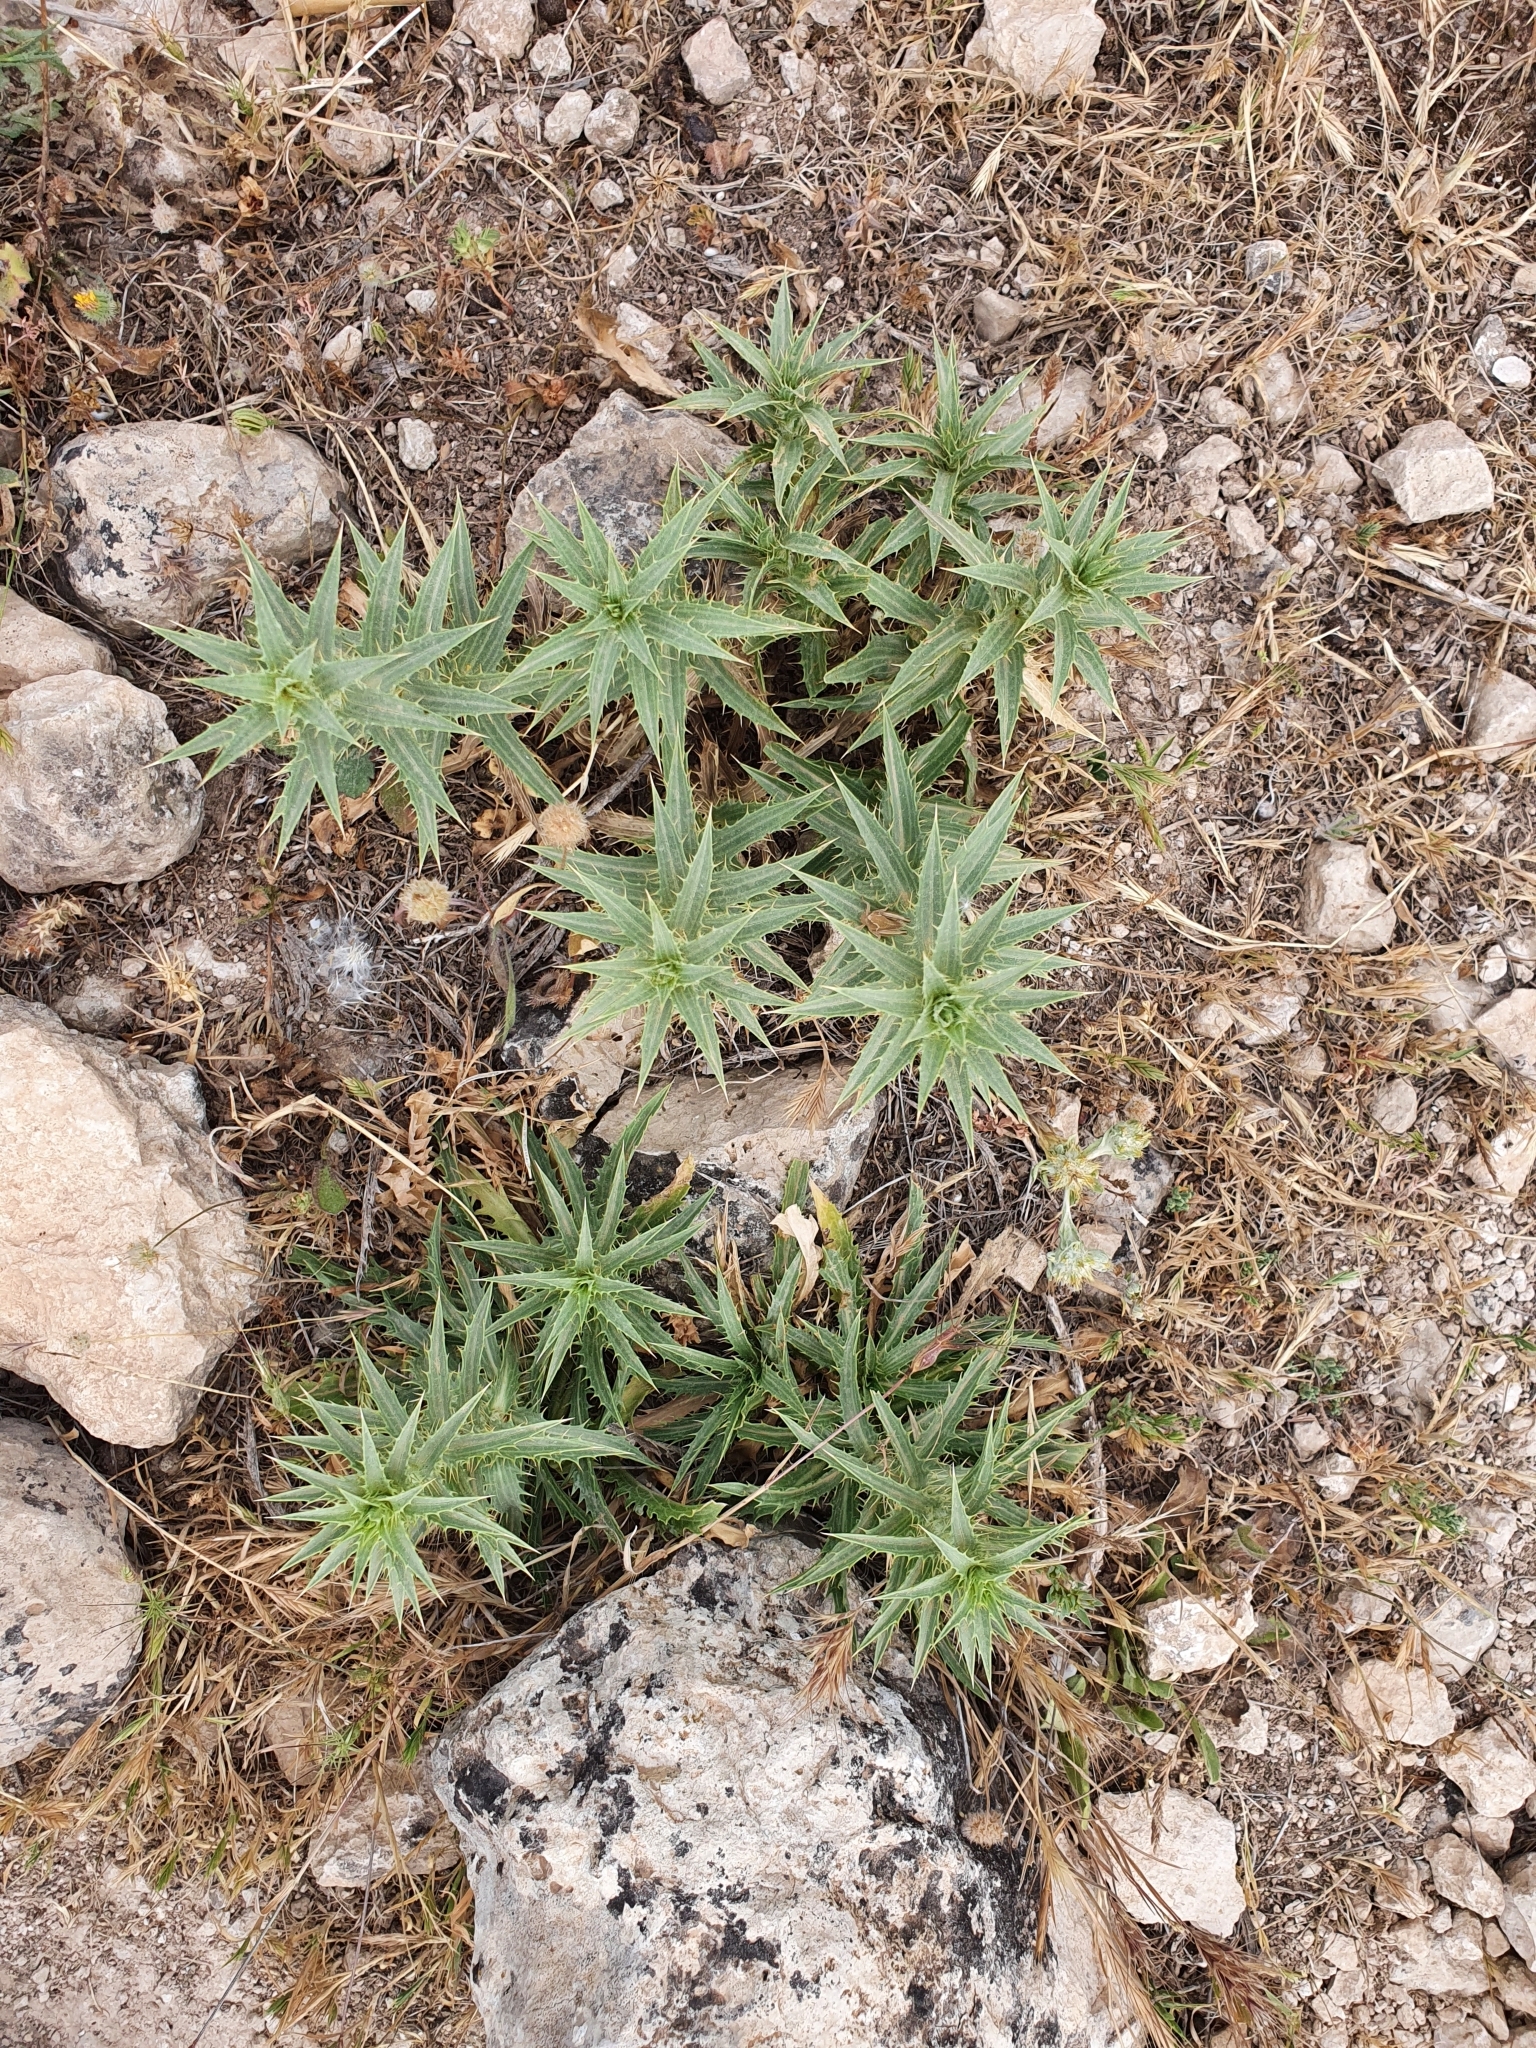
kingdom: Plantae
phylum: Tracheophyta
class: Magnoliopsida
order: Asterales
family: Asteraceae
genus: Carduncellus
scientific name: Carduncellus pectinatus
